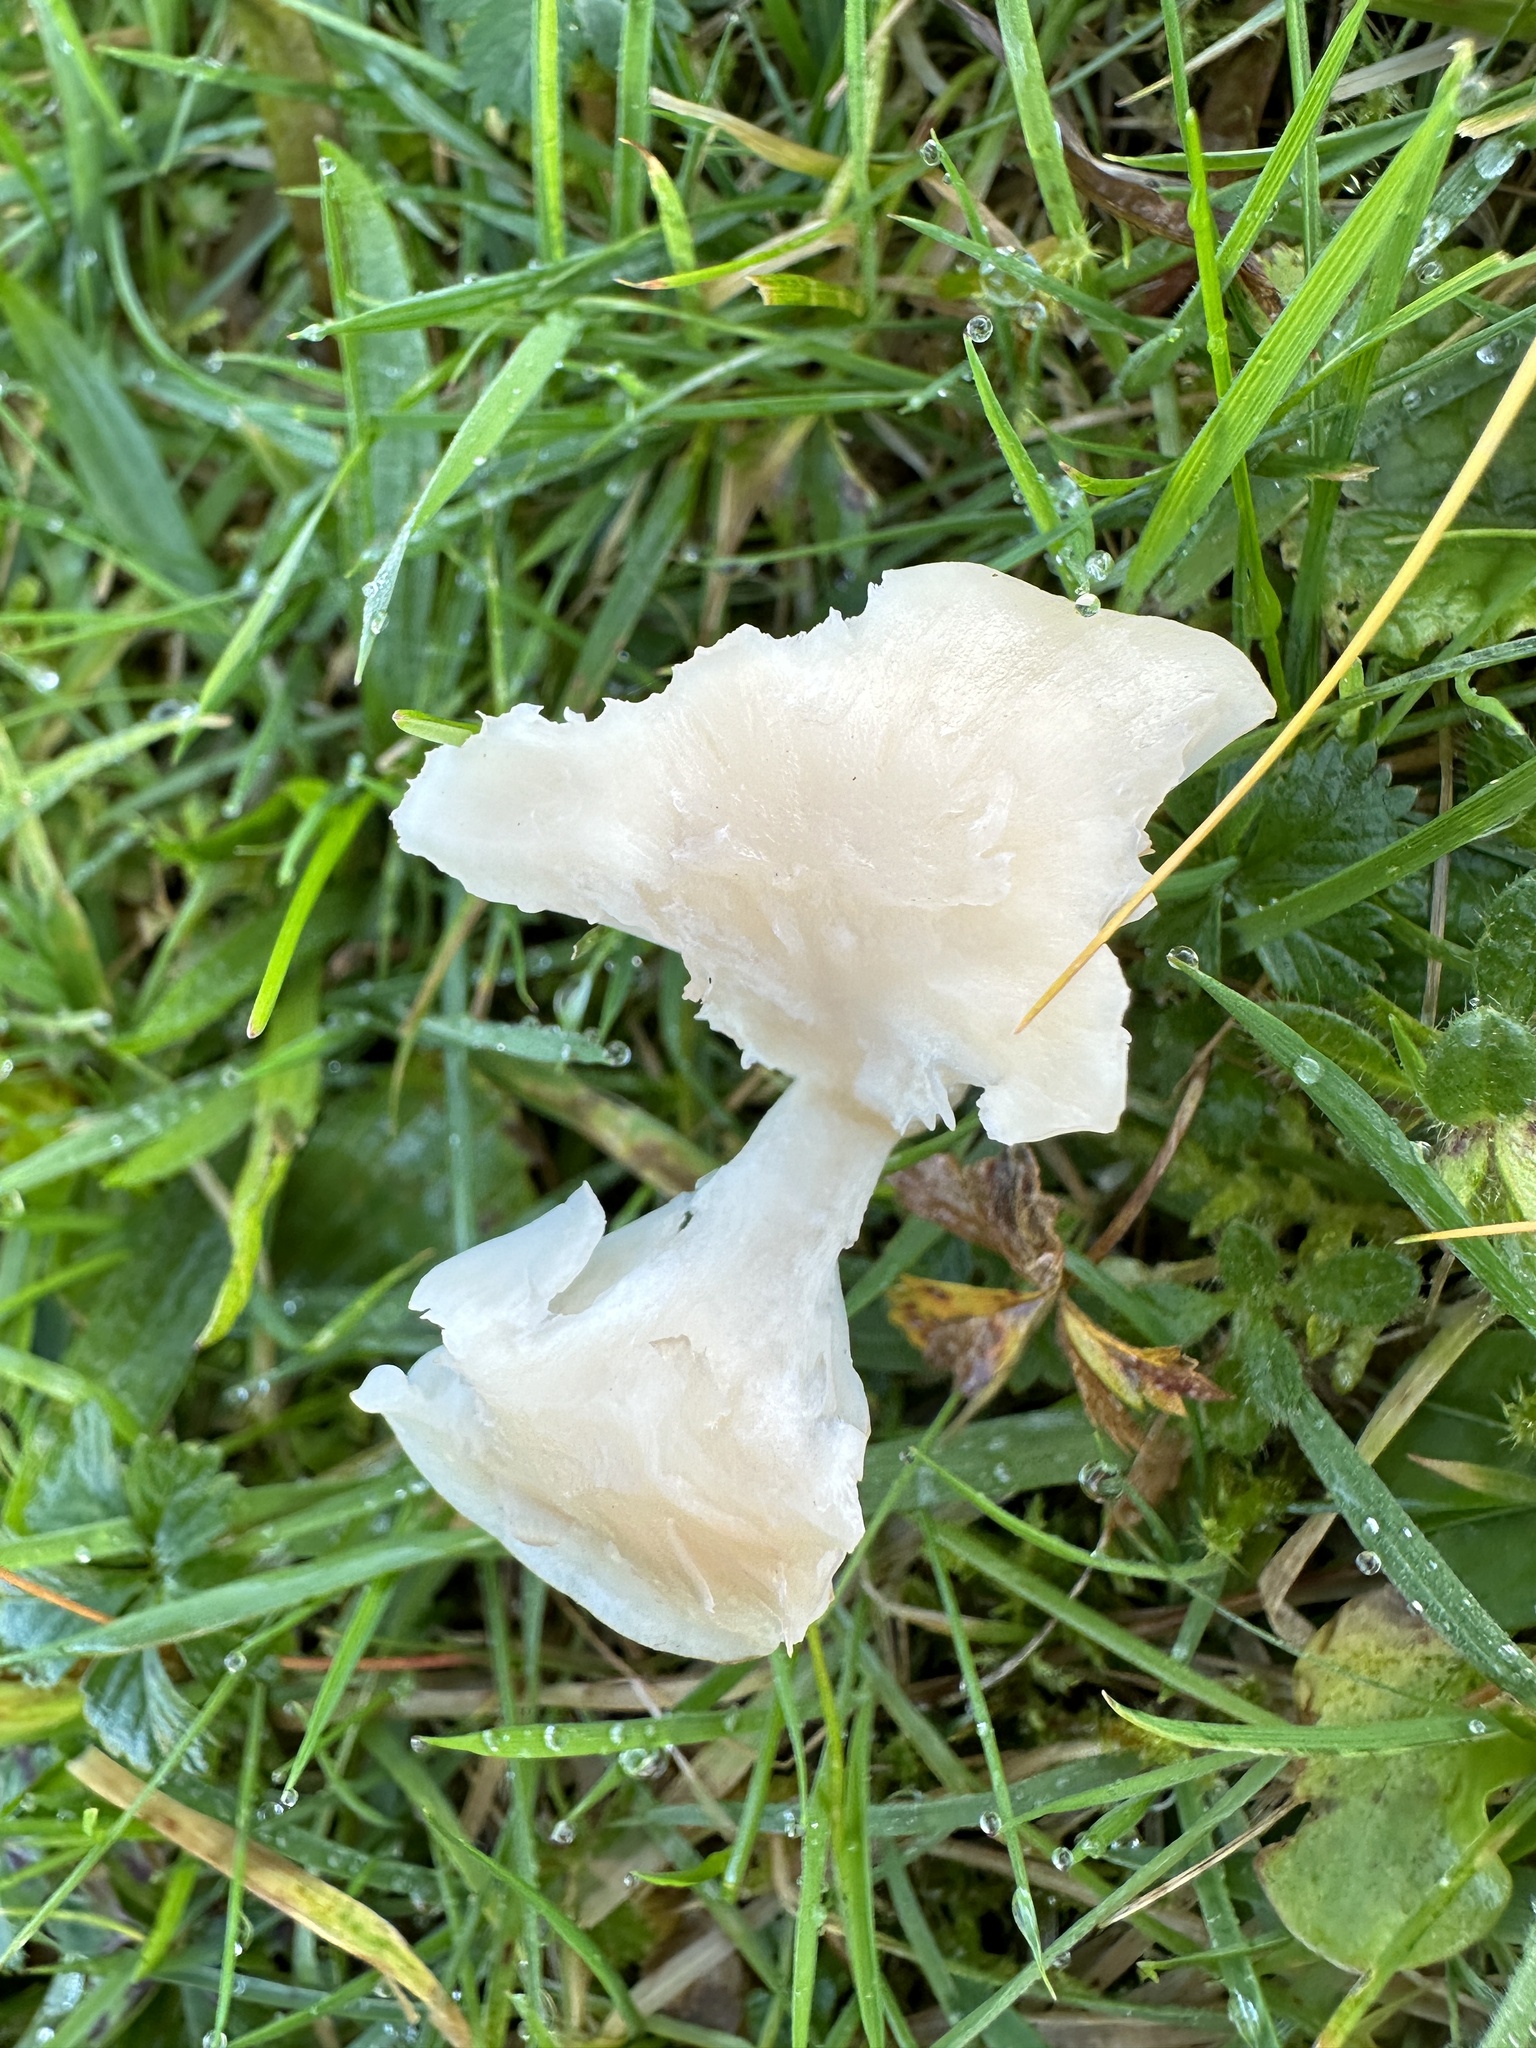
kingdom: Fungi
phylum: Basidiomycota
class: Agaricomycetes
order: Agaricales
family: Hygrophoraceae
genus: Cuphophyllus
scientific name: Cuphophyllus virgineus
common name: Snowy waxcap
